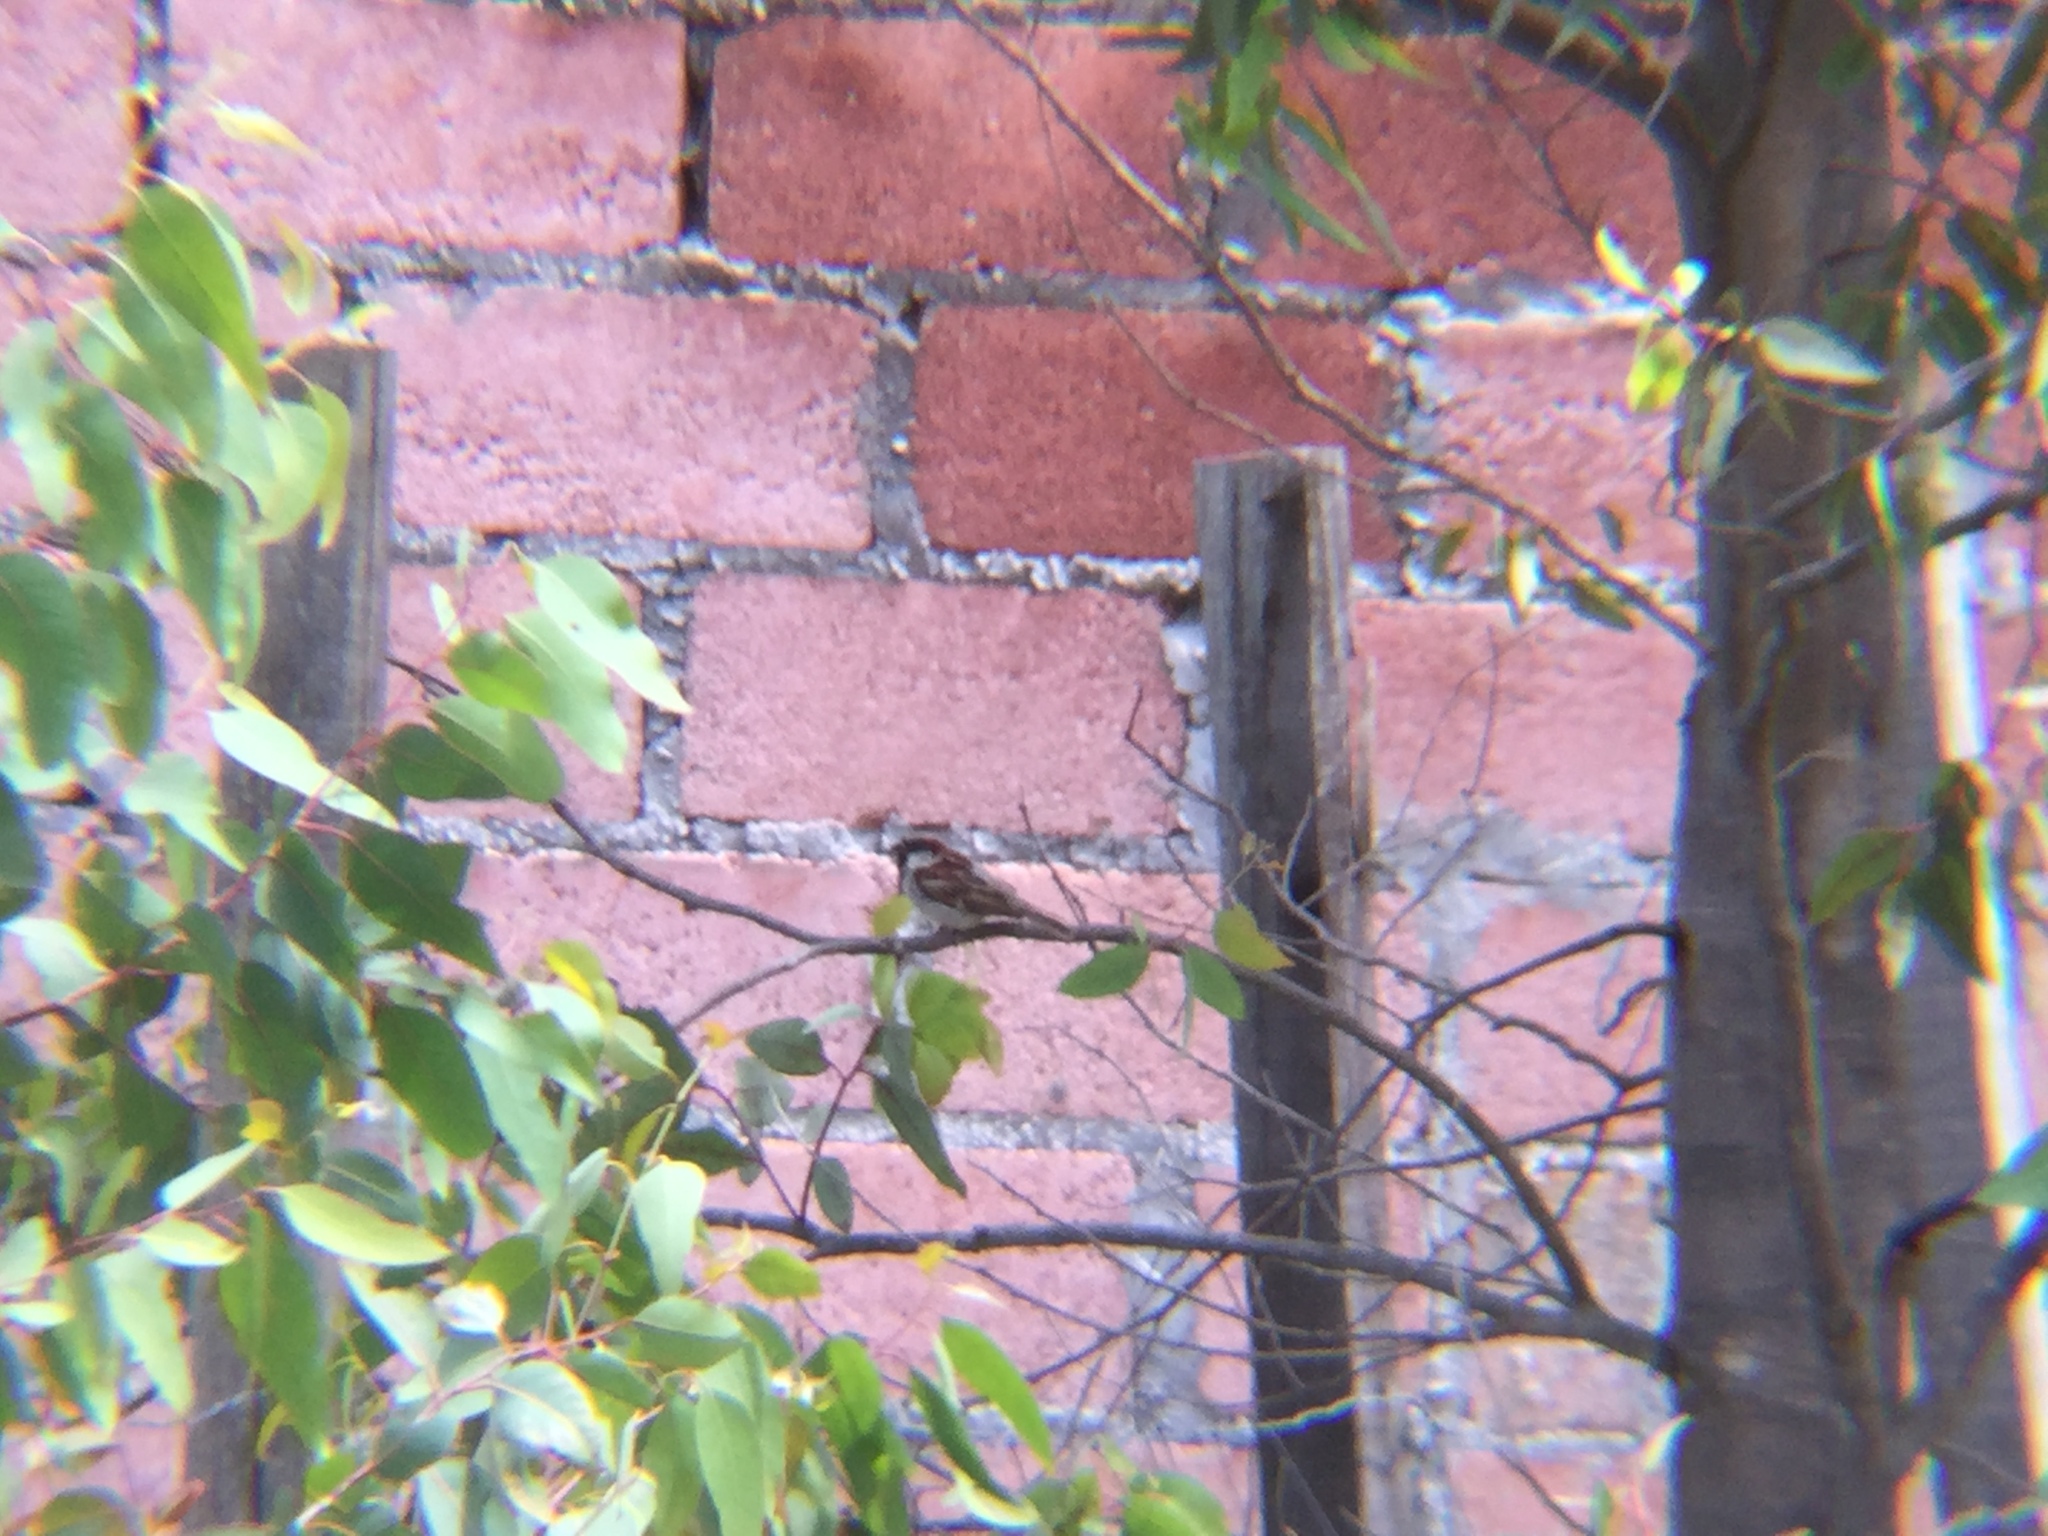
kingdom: Animalia
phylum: Chordata
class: Aves
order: Passeriformes
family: Passeridae
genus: Passer
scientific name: Passer domesticus
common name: House sparrow
